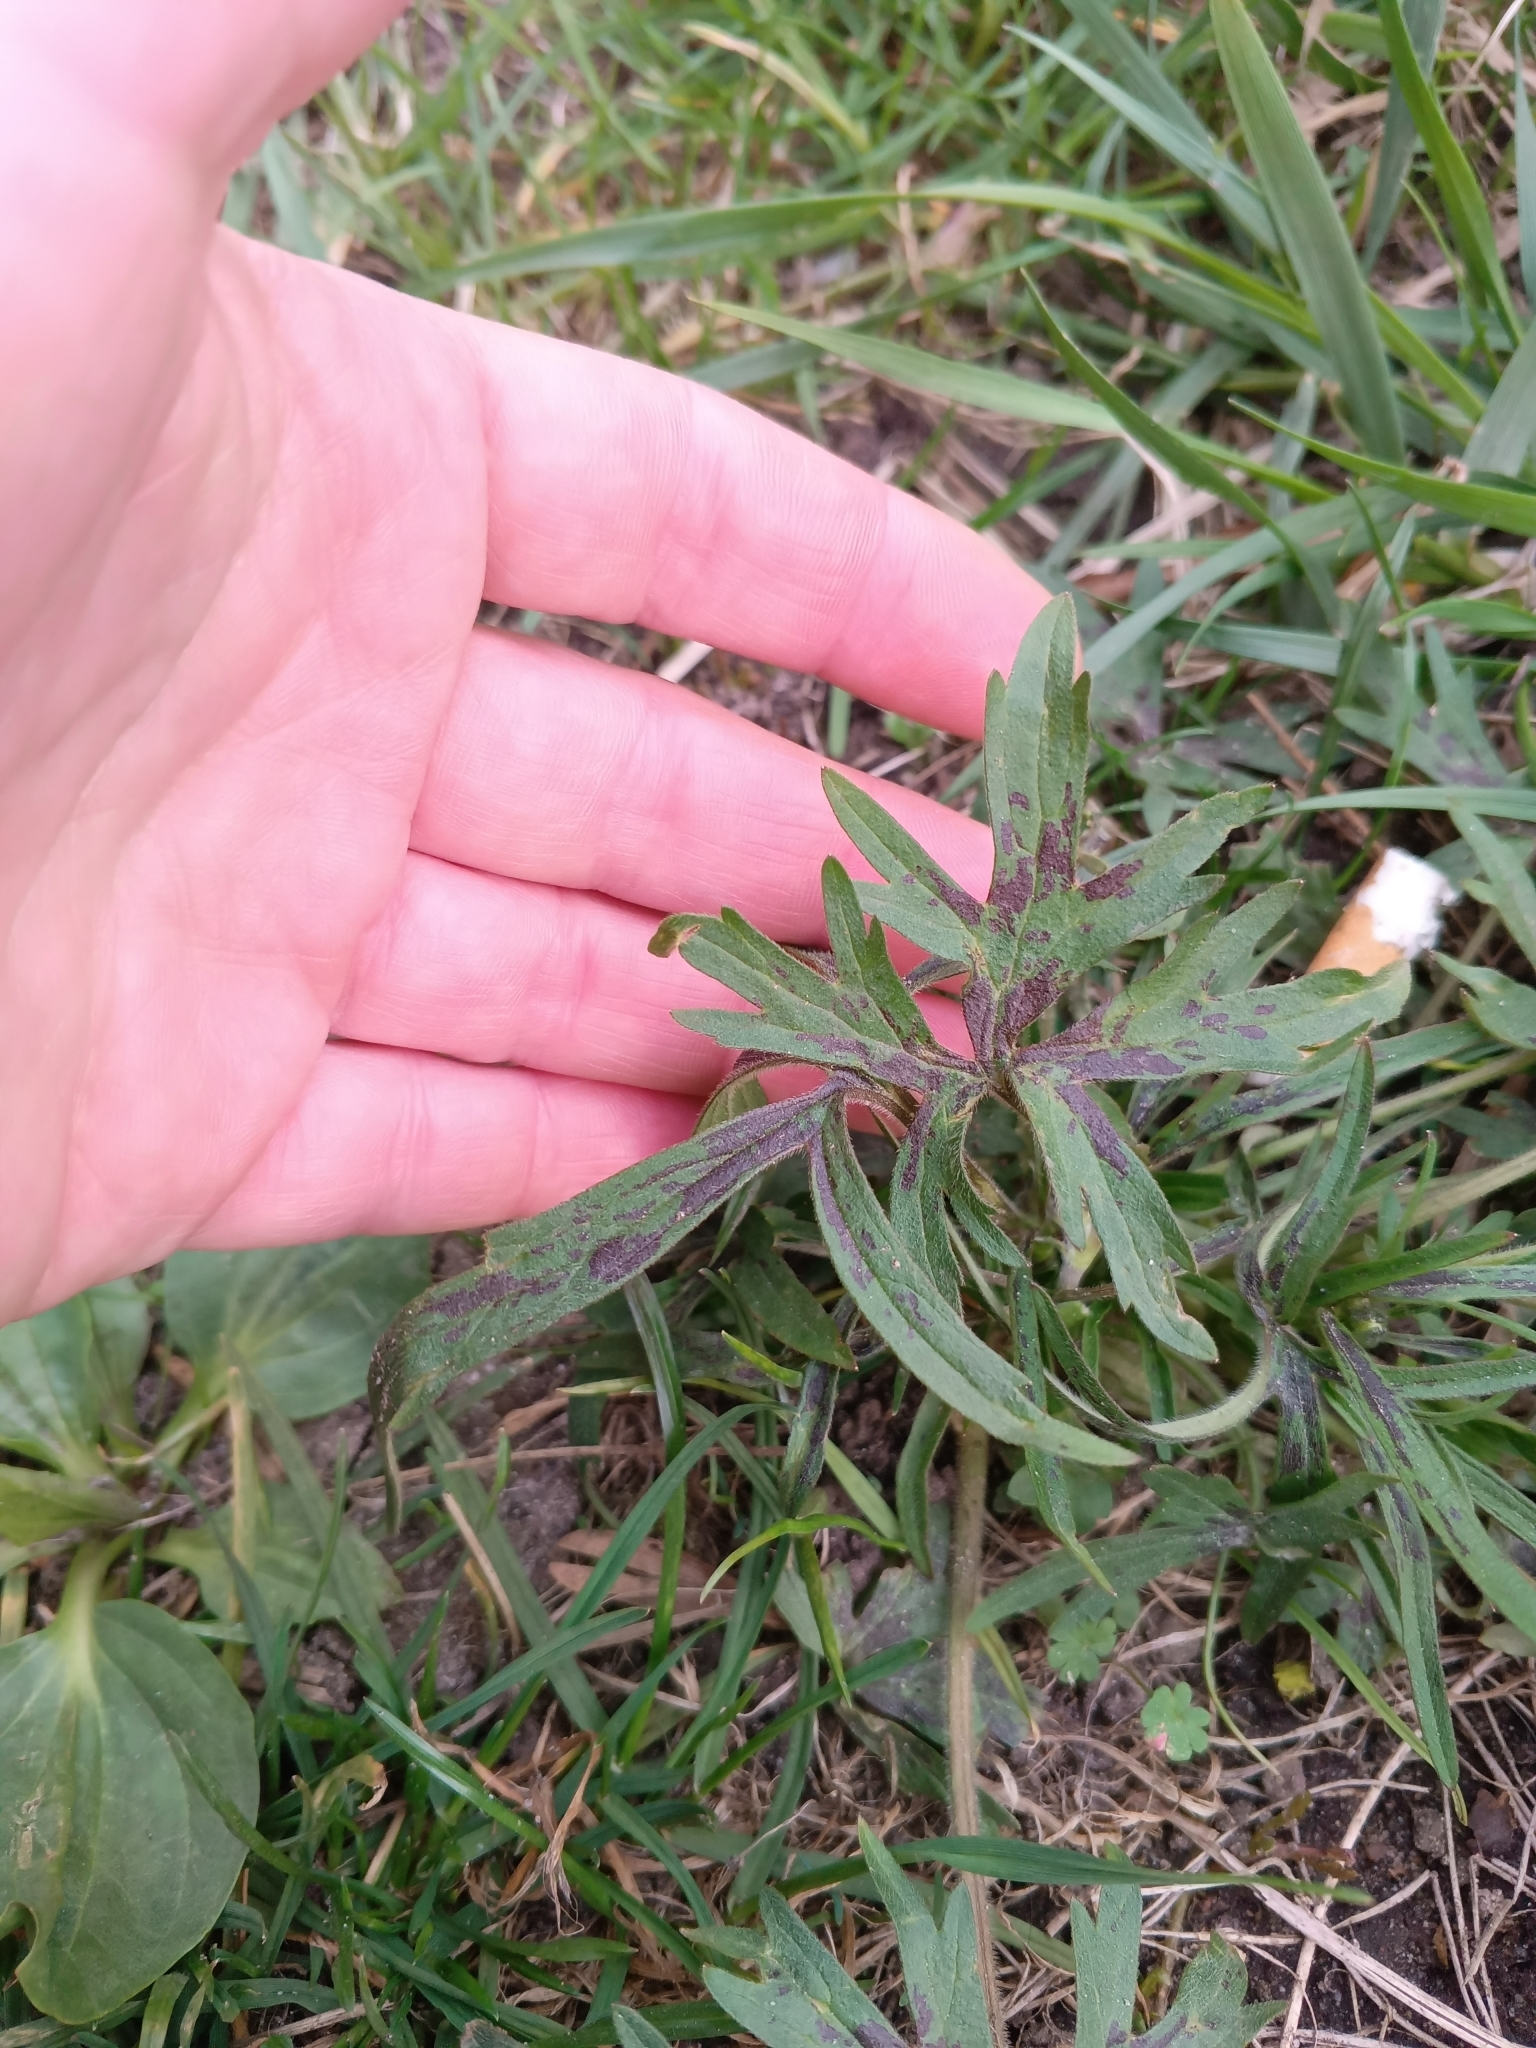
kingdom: Plantae
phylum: Tracheophyta
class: Magnoliopsida
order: Ranunculales
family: Ranunculaceae
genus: Ranunculus
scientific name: Ranunculus polyanthemos
